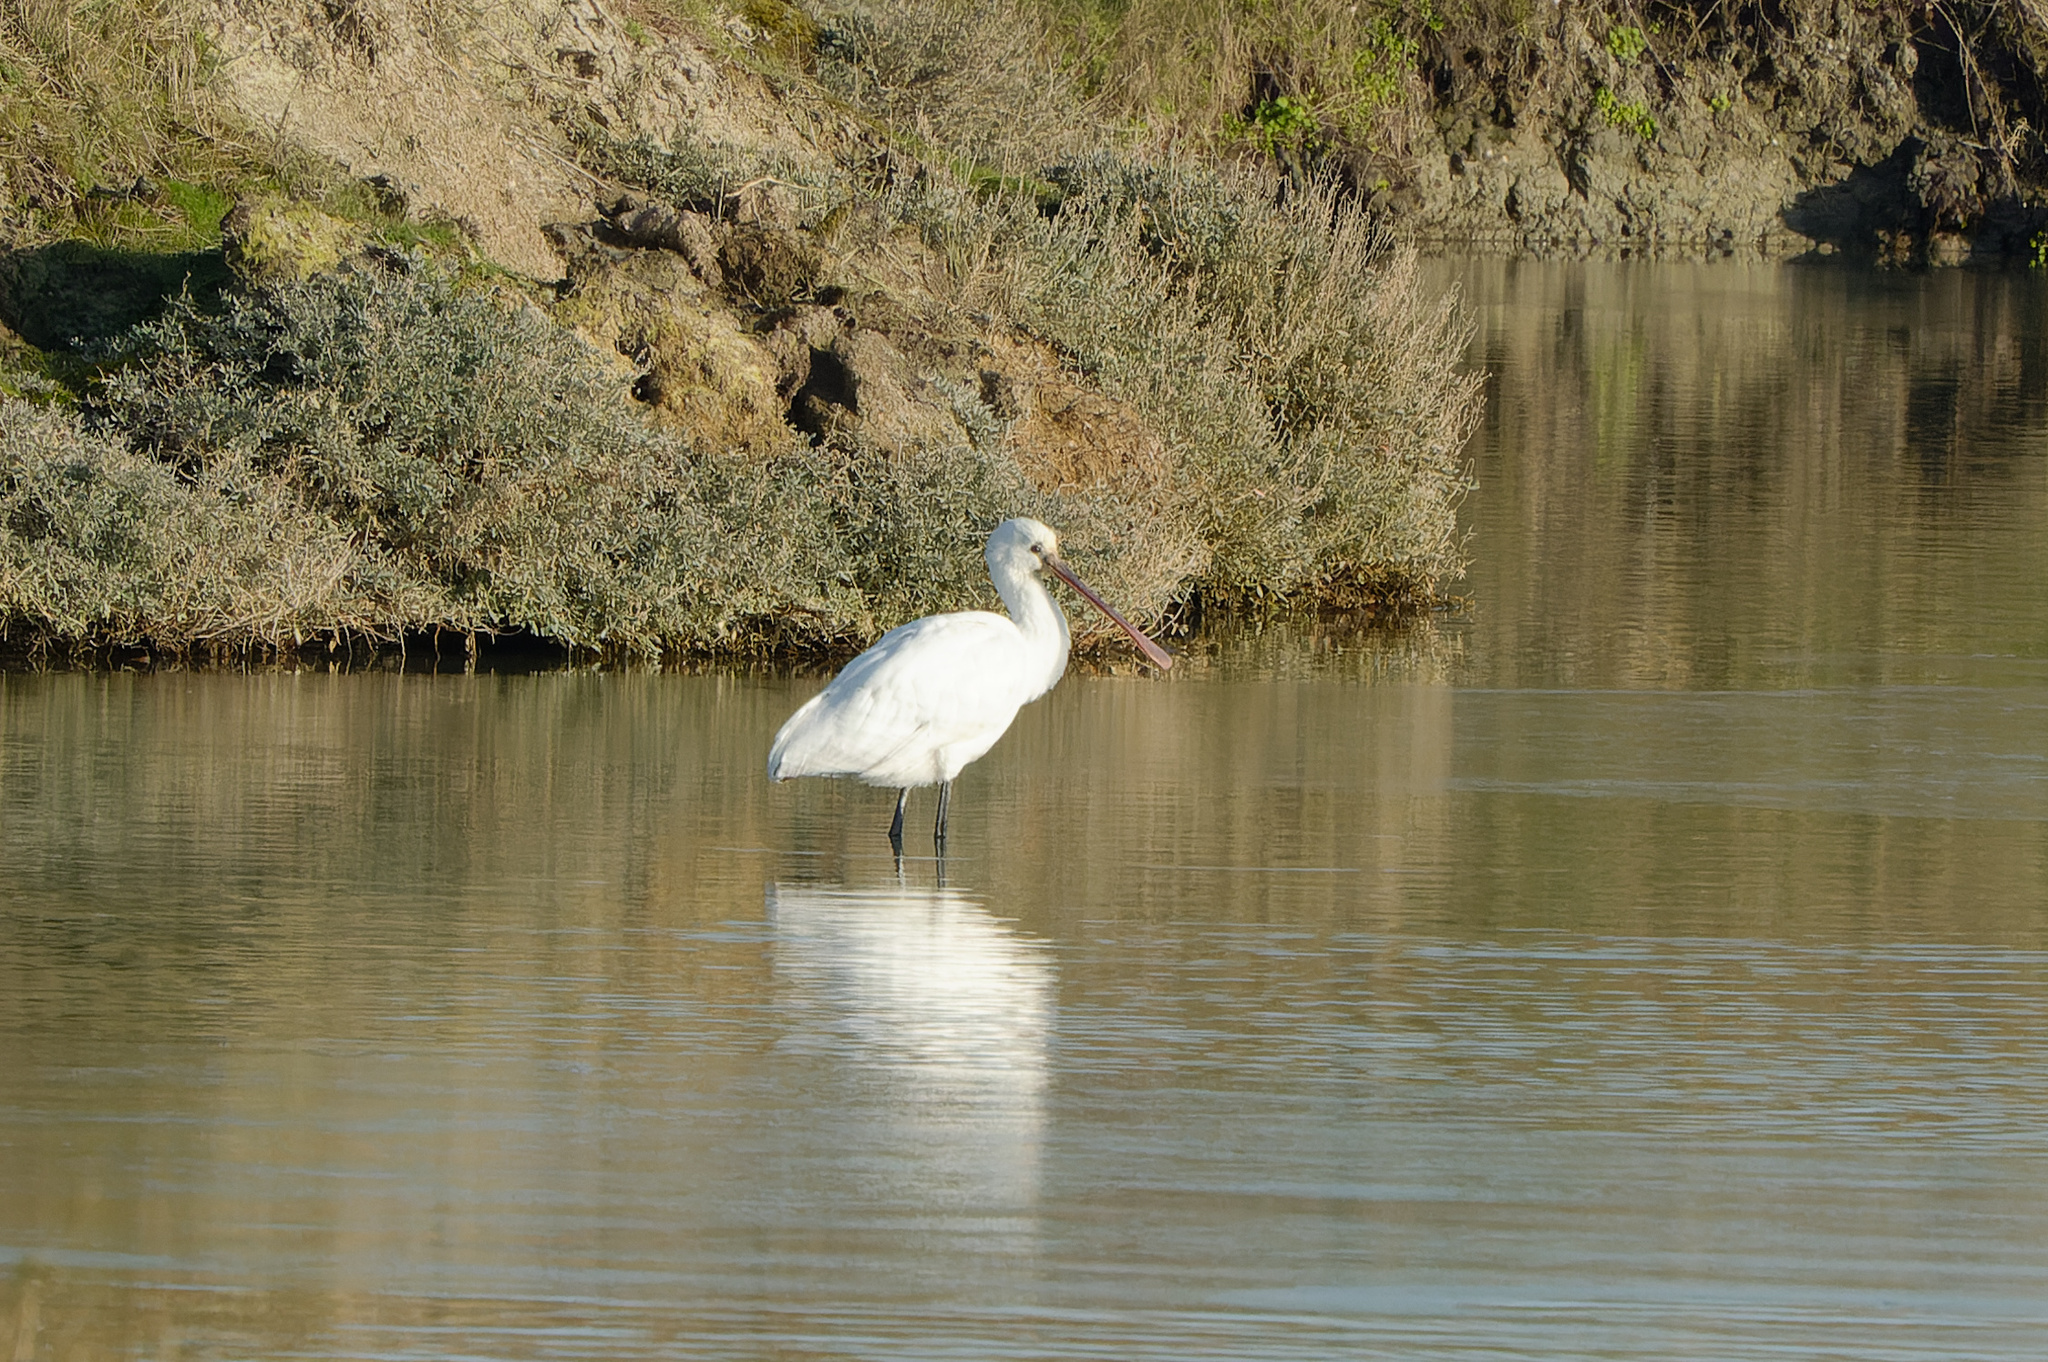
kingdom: Animalia
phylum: Chordata
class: Aves
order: Pelecaniformes
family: Threskiornithidae
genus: Platalea
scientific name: Platalea leucorodia
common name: Eurasian spoonbill
